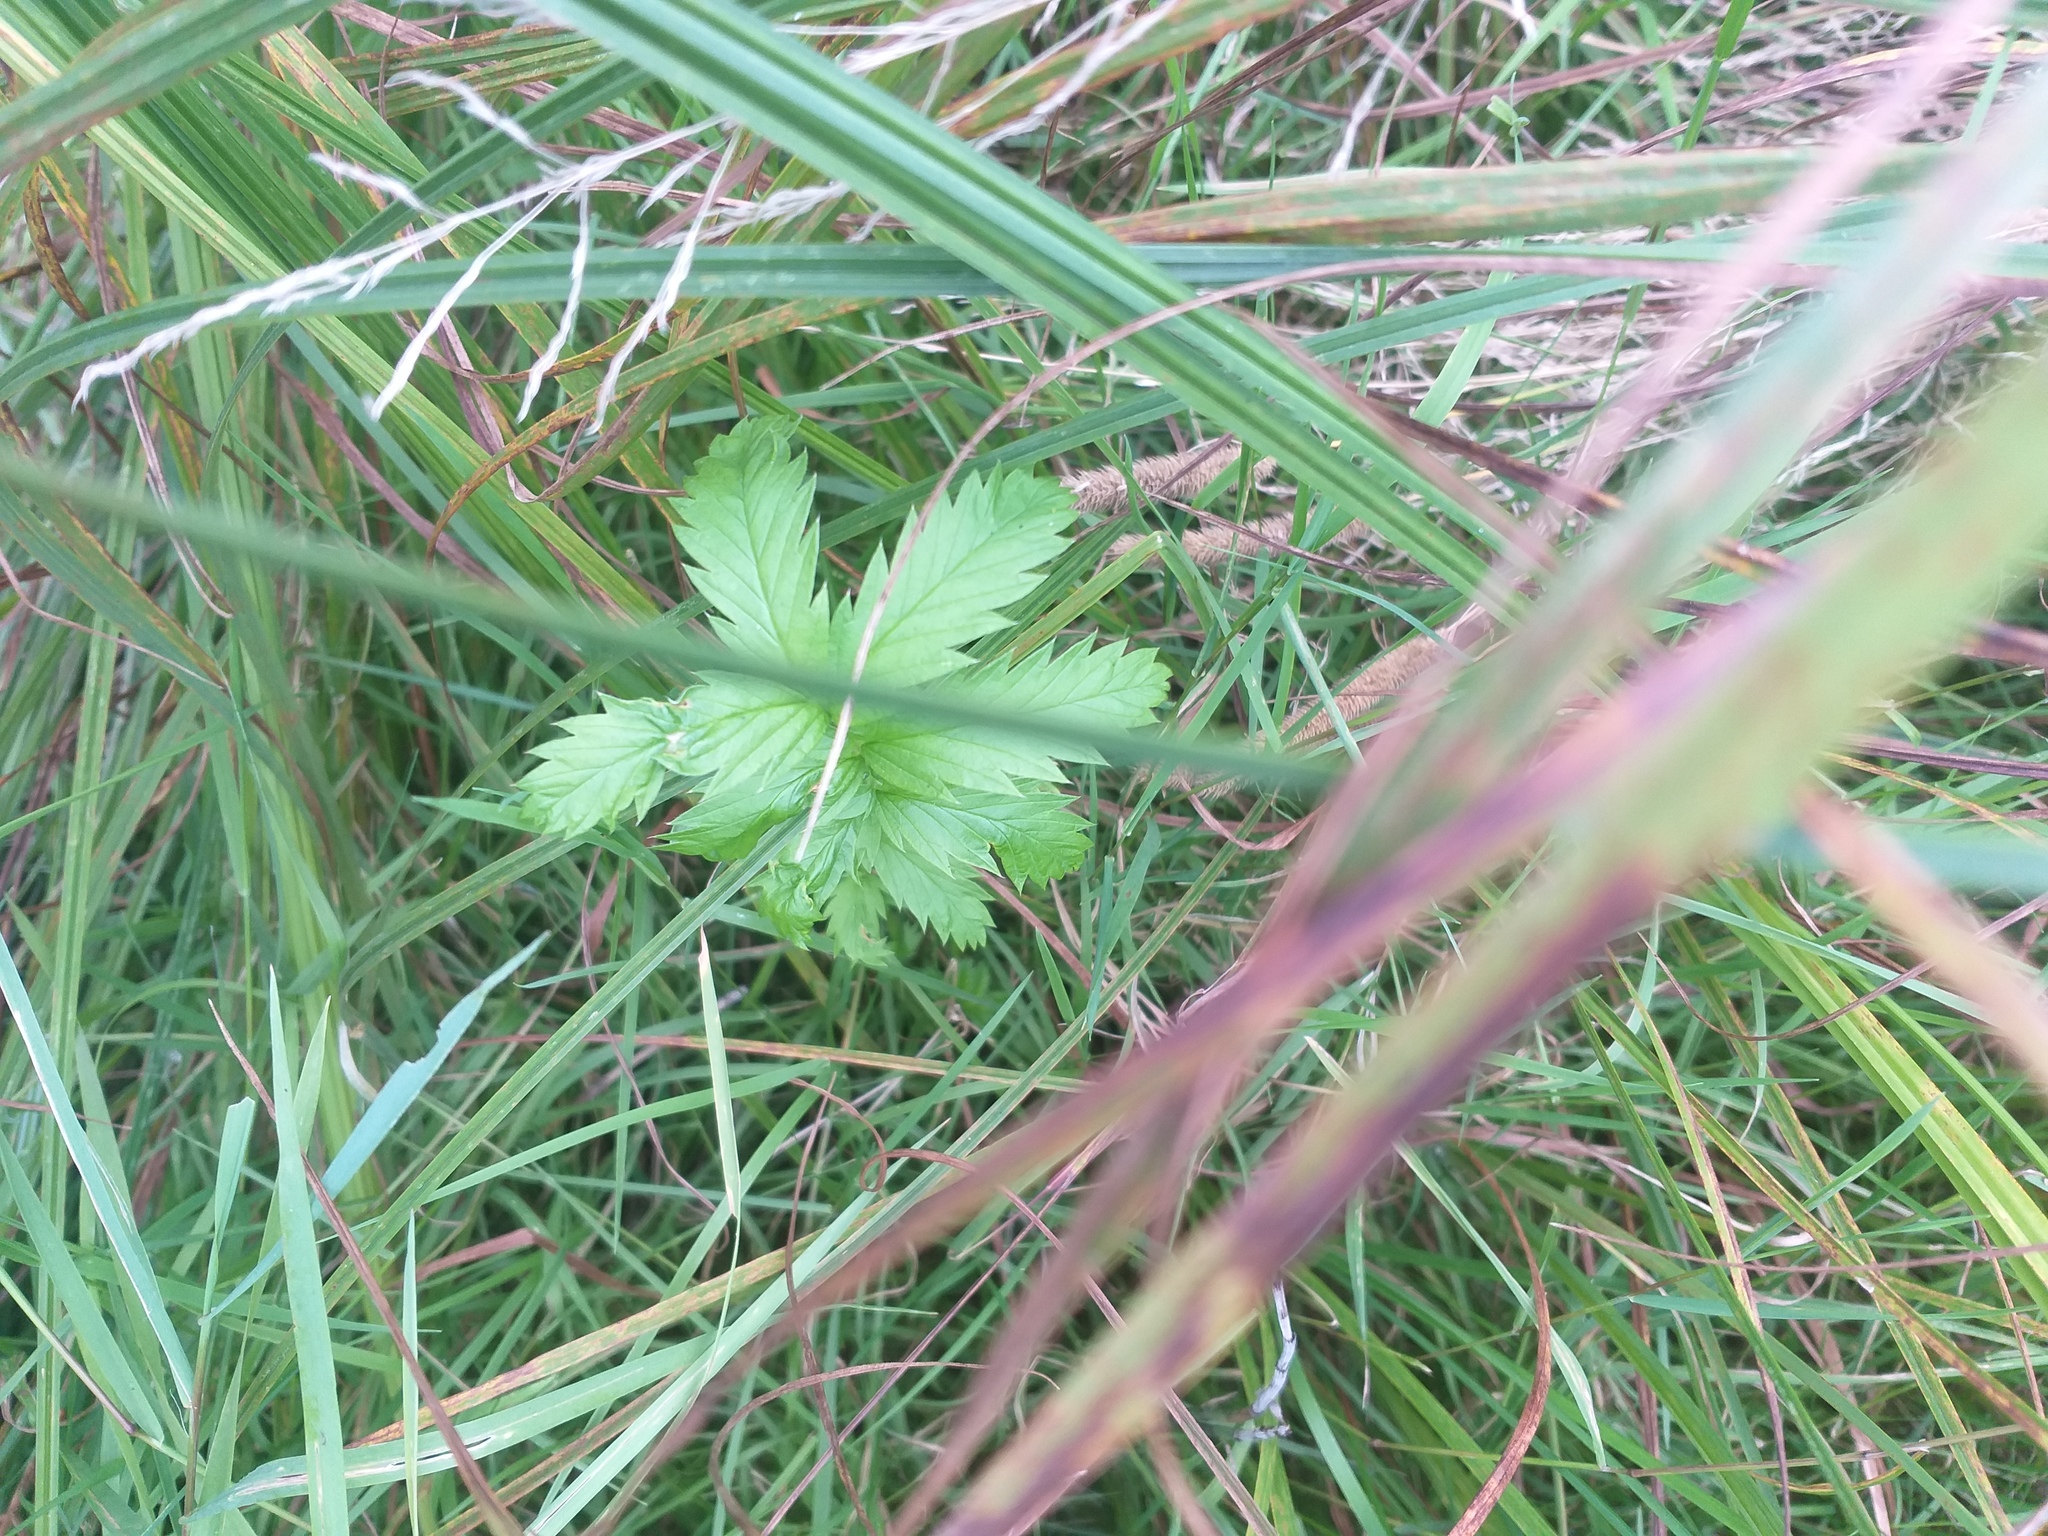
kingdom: Plantae
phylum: Tracheophyta
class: Magnoliopsida
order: Rosales
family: Rosaceae
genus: Argentina
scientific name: Argentina anserina
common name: Common silverweed
